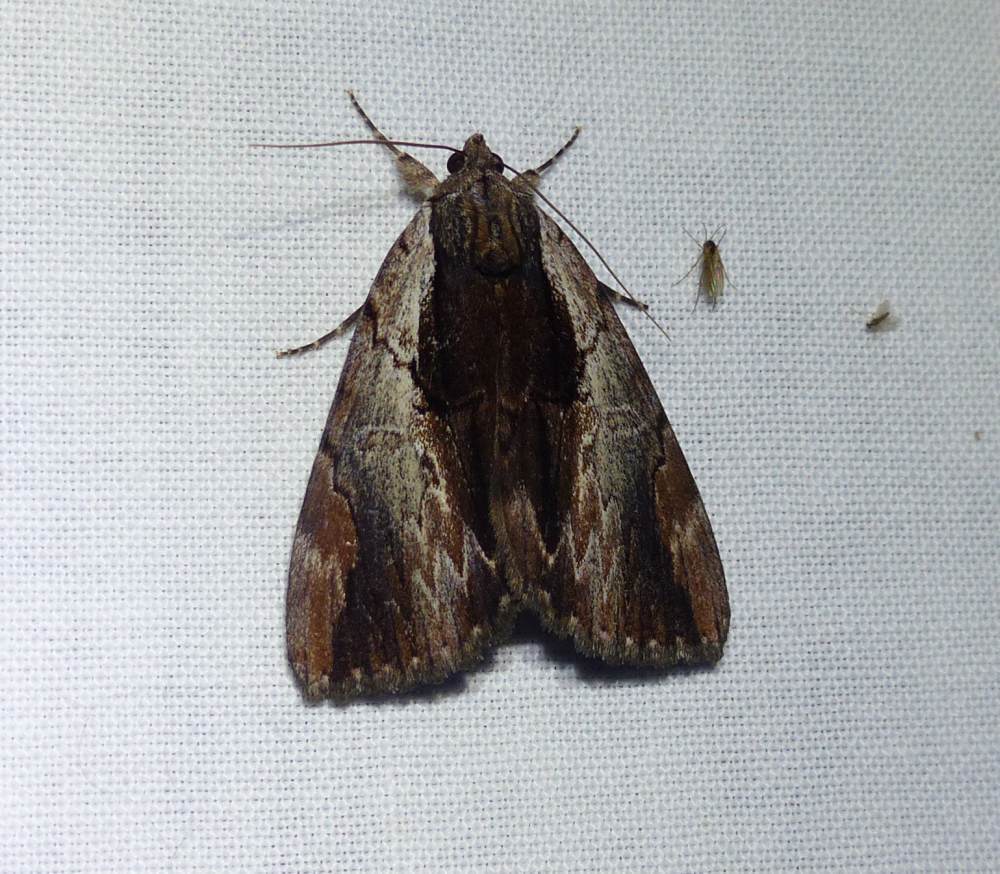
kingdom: Animalia
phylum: Arthropoda
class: Insecta
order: Lepidoptera
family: Erebidae
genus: Catocala
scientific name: Catocala ultronia
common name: Ultronia underwing
